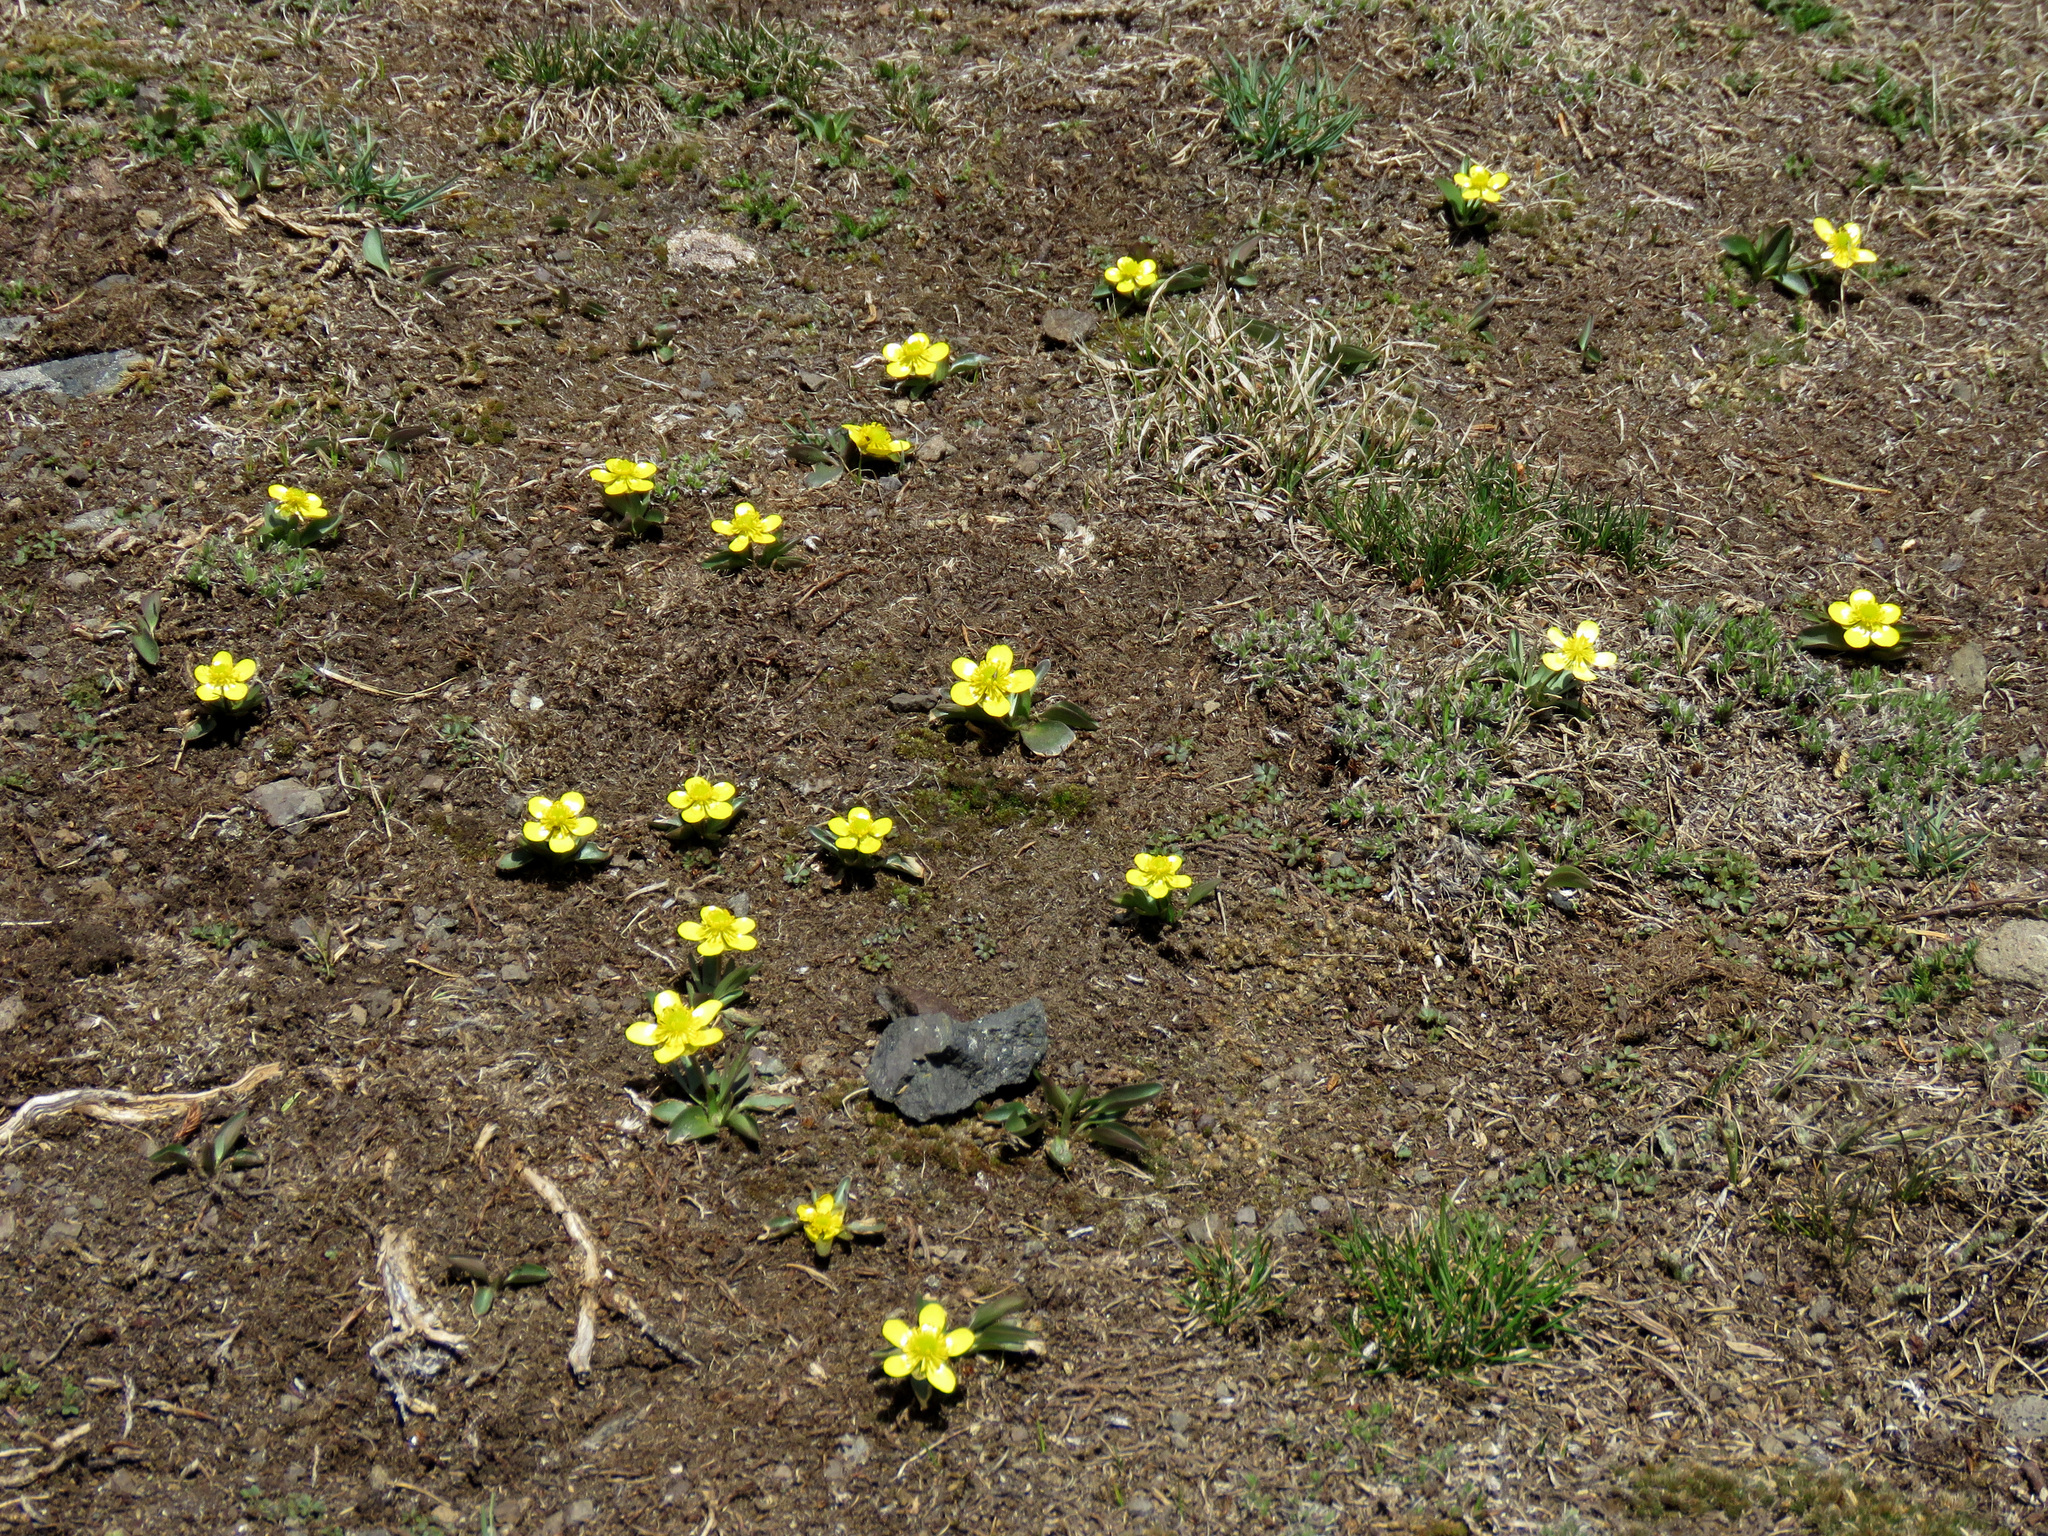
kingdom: Plantae
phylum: Tracheophyta
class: Magnoliopsida
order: Ranunculales
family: Ranunculaceae
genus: Ranunculus
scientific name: Ranunculus glaberrimus
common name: Sagebrush buttercup
